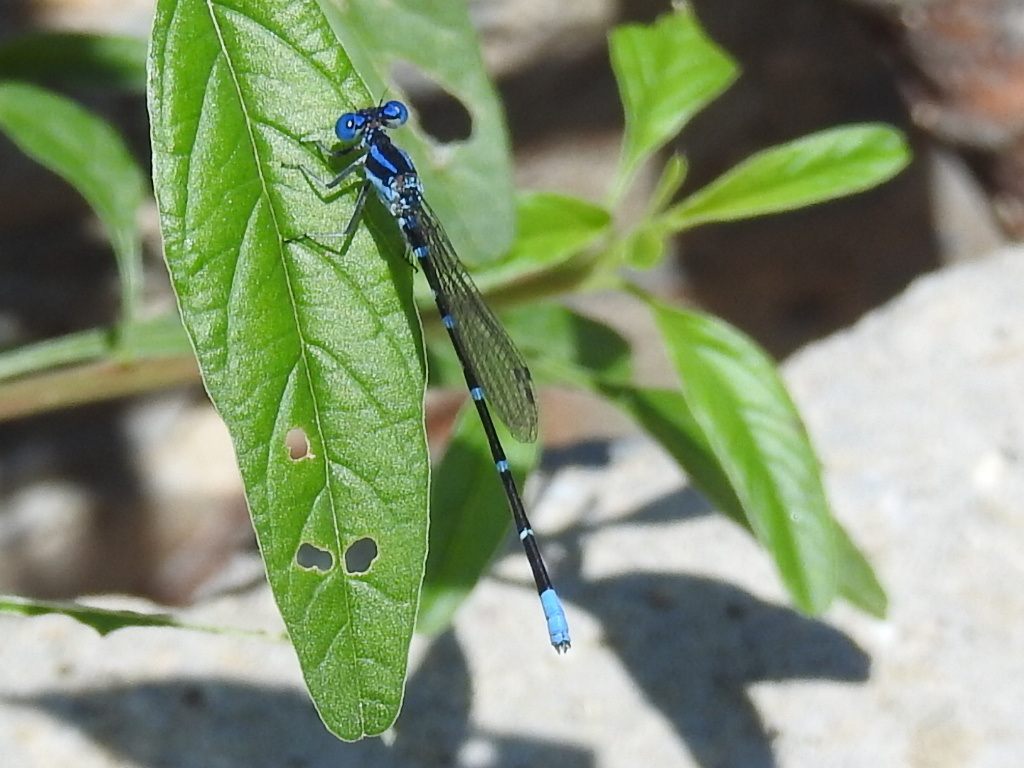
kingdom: Animalia
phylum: Arthropoda
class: Insecta
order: Odonata
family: Coenagrionidae
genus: Argia
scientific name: Argia sedula
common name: Blue-ringed dancer
